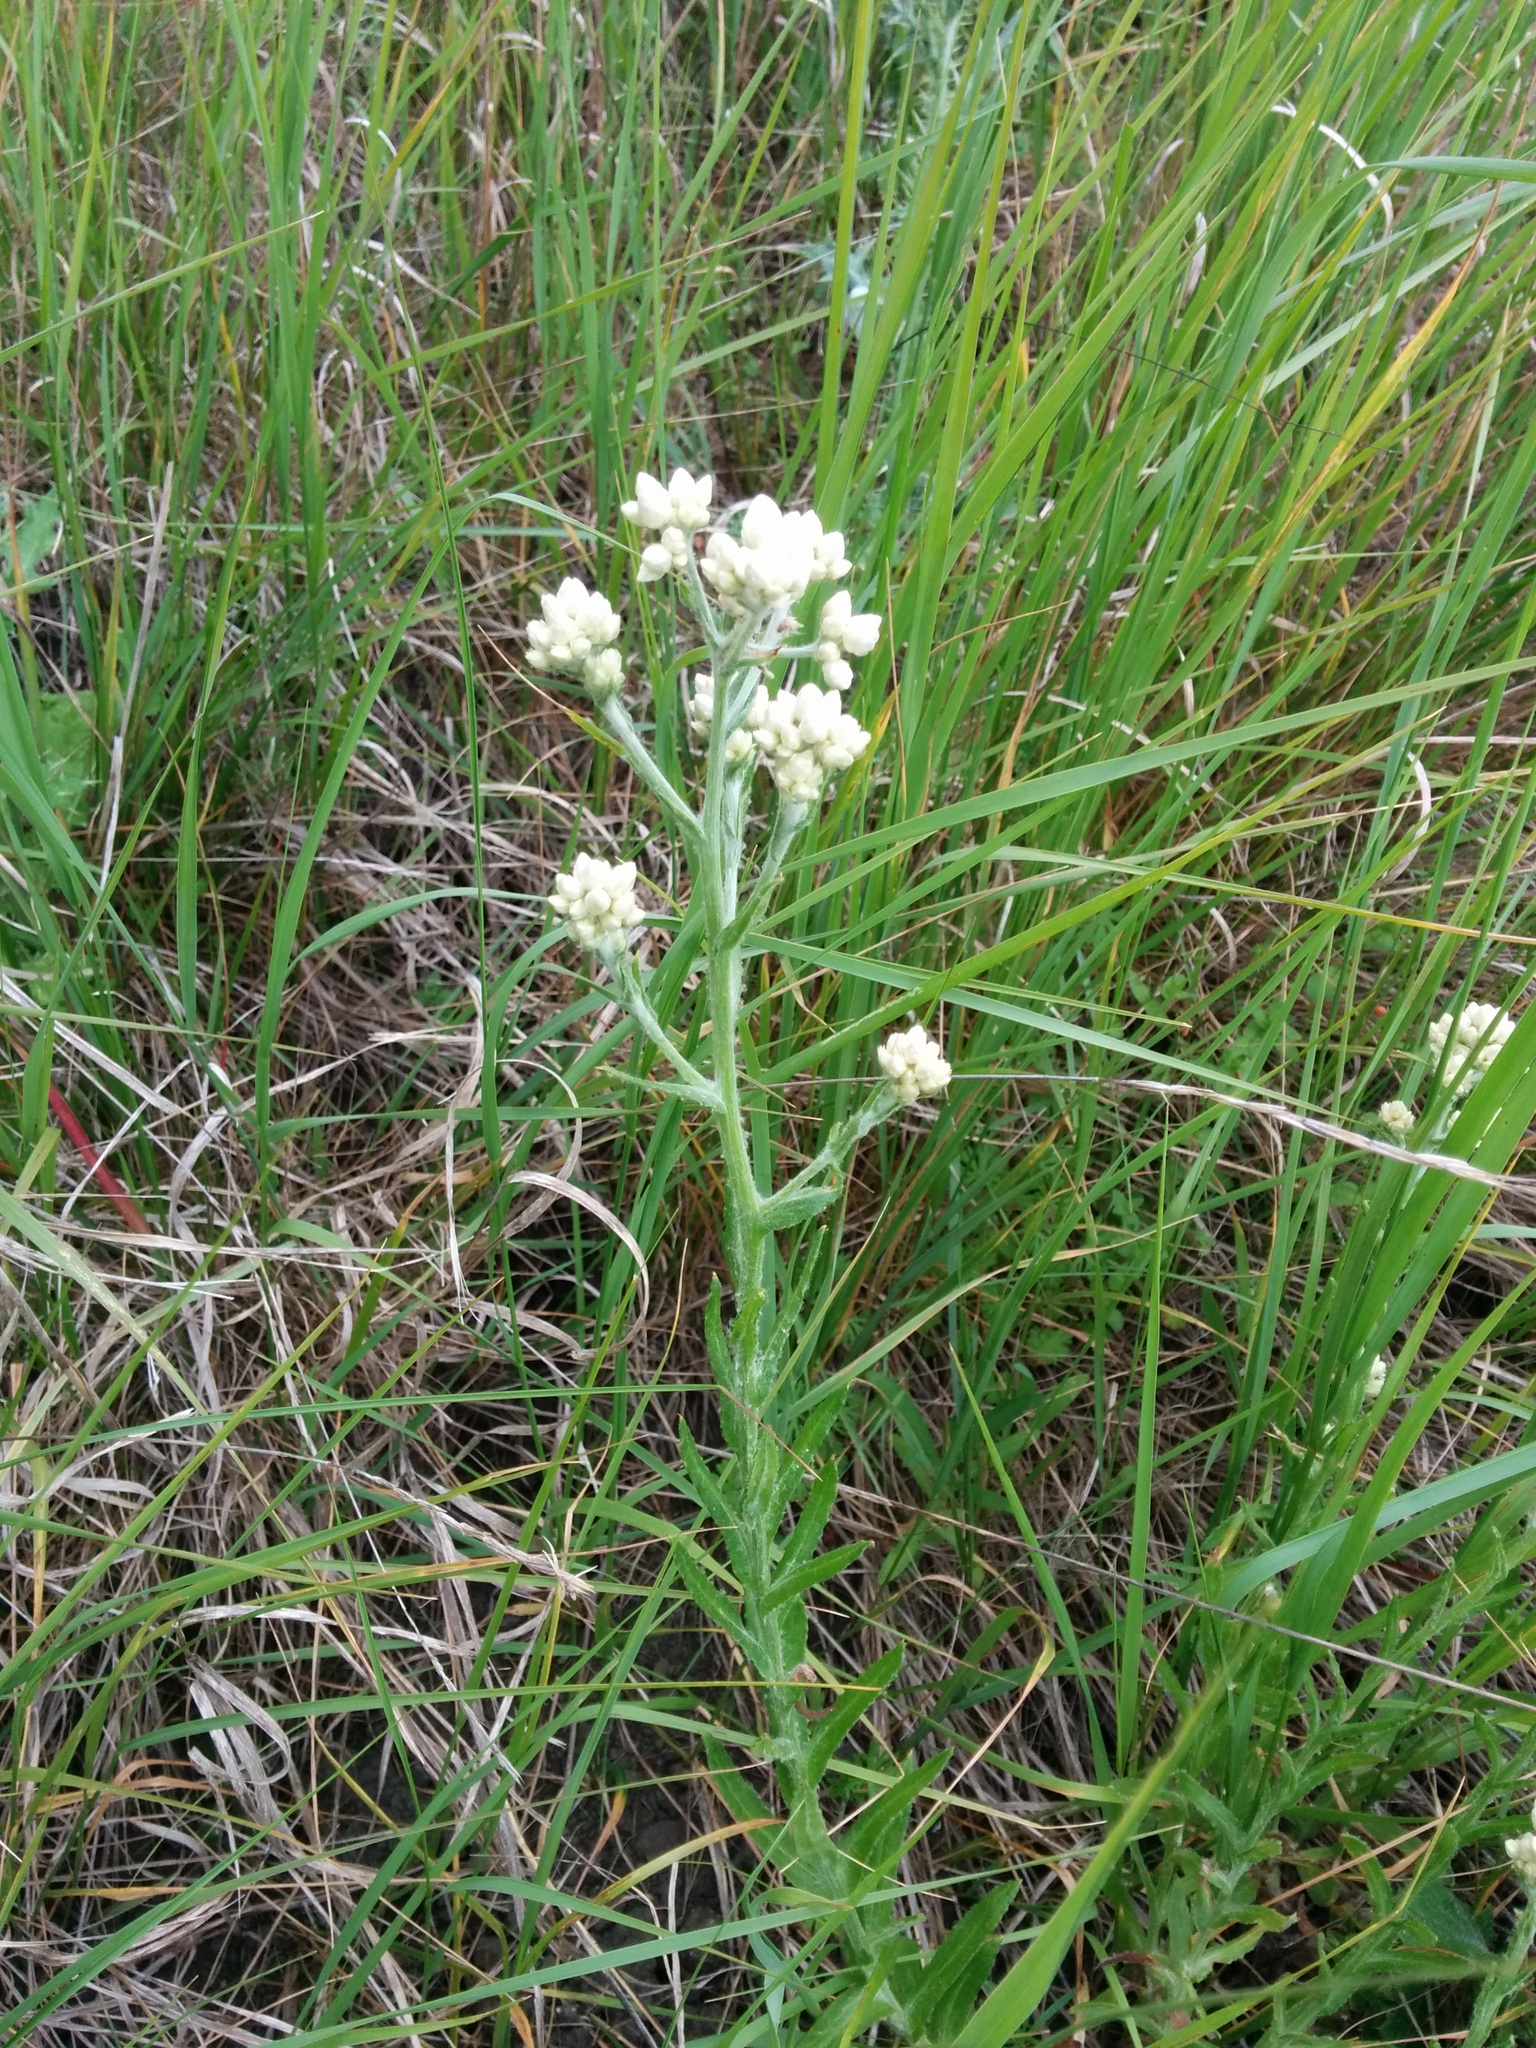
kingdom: Plantae
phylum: Tracheophyta
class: Magnoliopsida
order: Asterales
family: Asteraceae
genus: Pseudognaphalium
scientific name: Pseudognaphalium californicum
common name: California rabbit-tobacco
